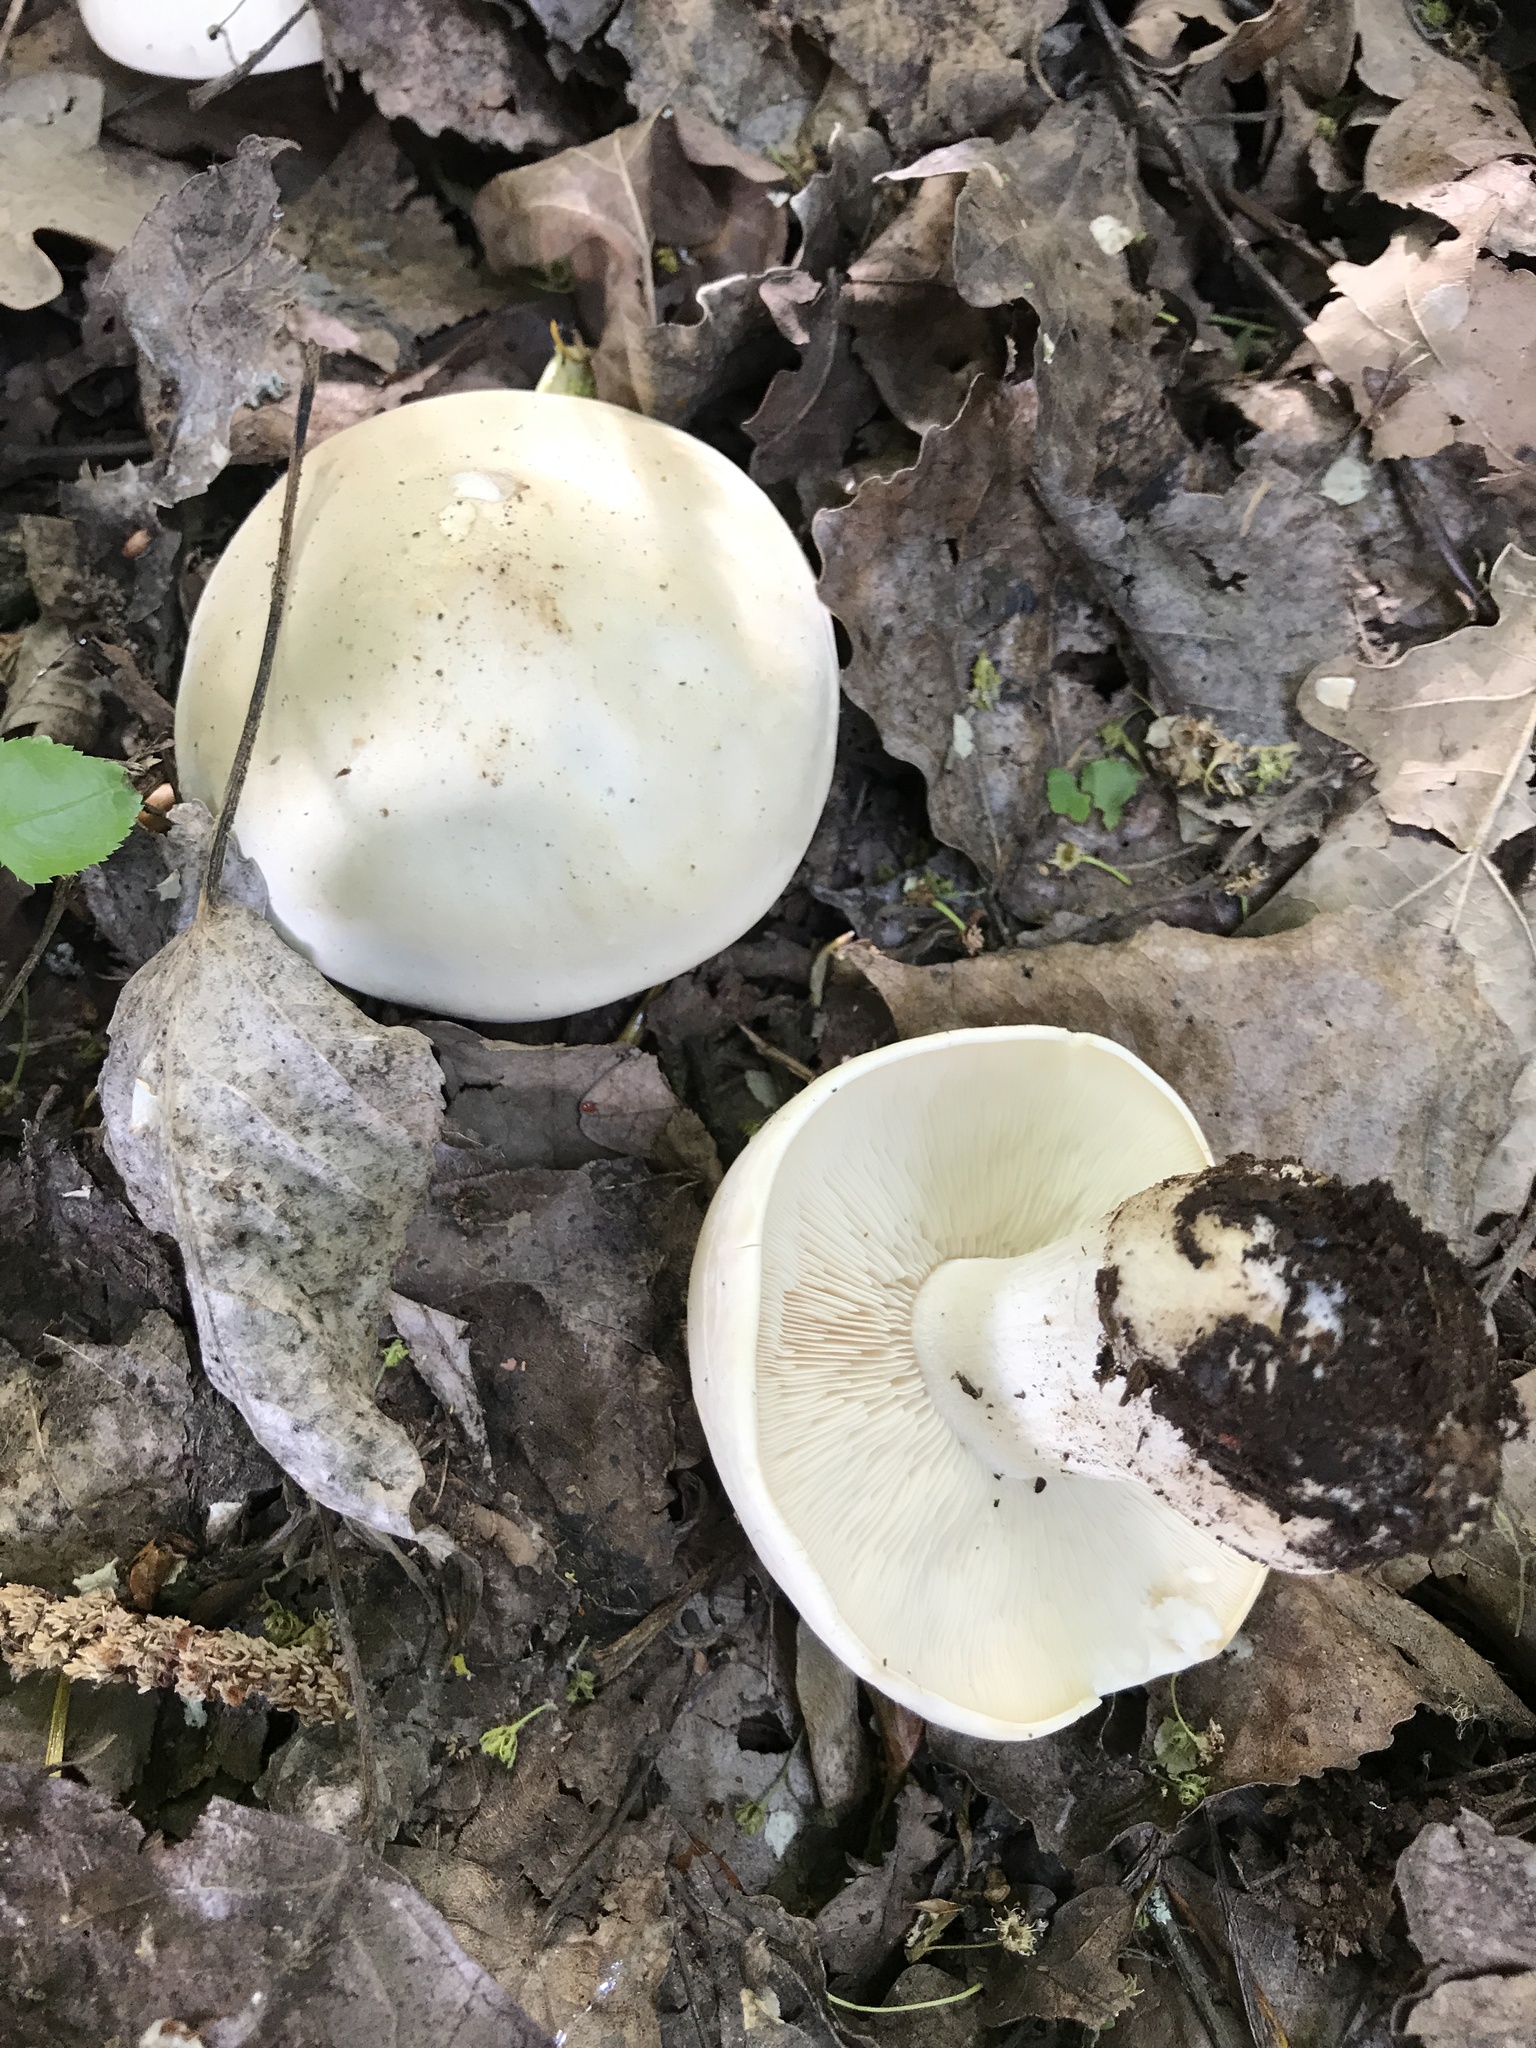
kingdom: Fungi
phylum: Basidiomycota
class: Agaricomycetes
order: Agaricales
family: Lyophyllaceae
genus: Calocybe
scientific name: Calocybe gambosa
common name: St. george's mushroom
